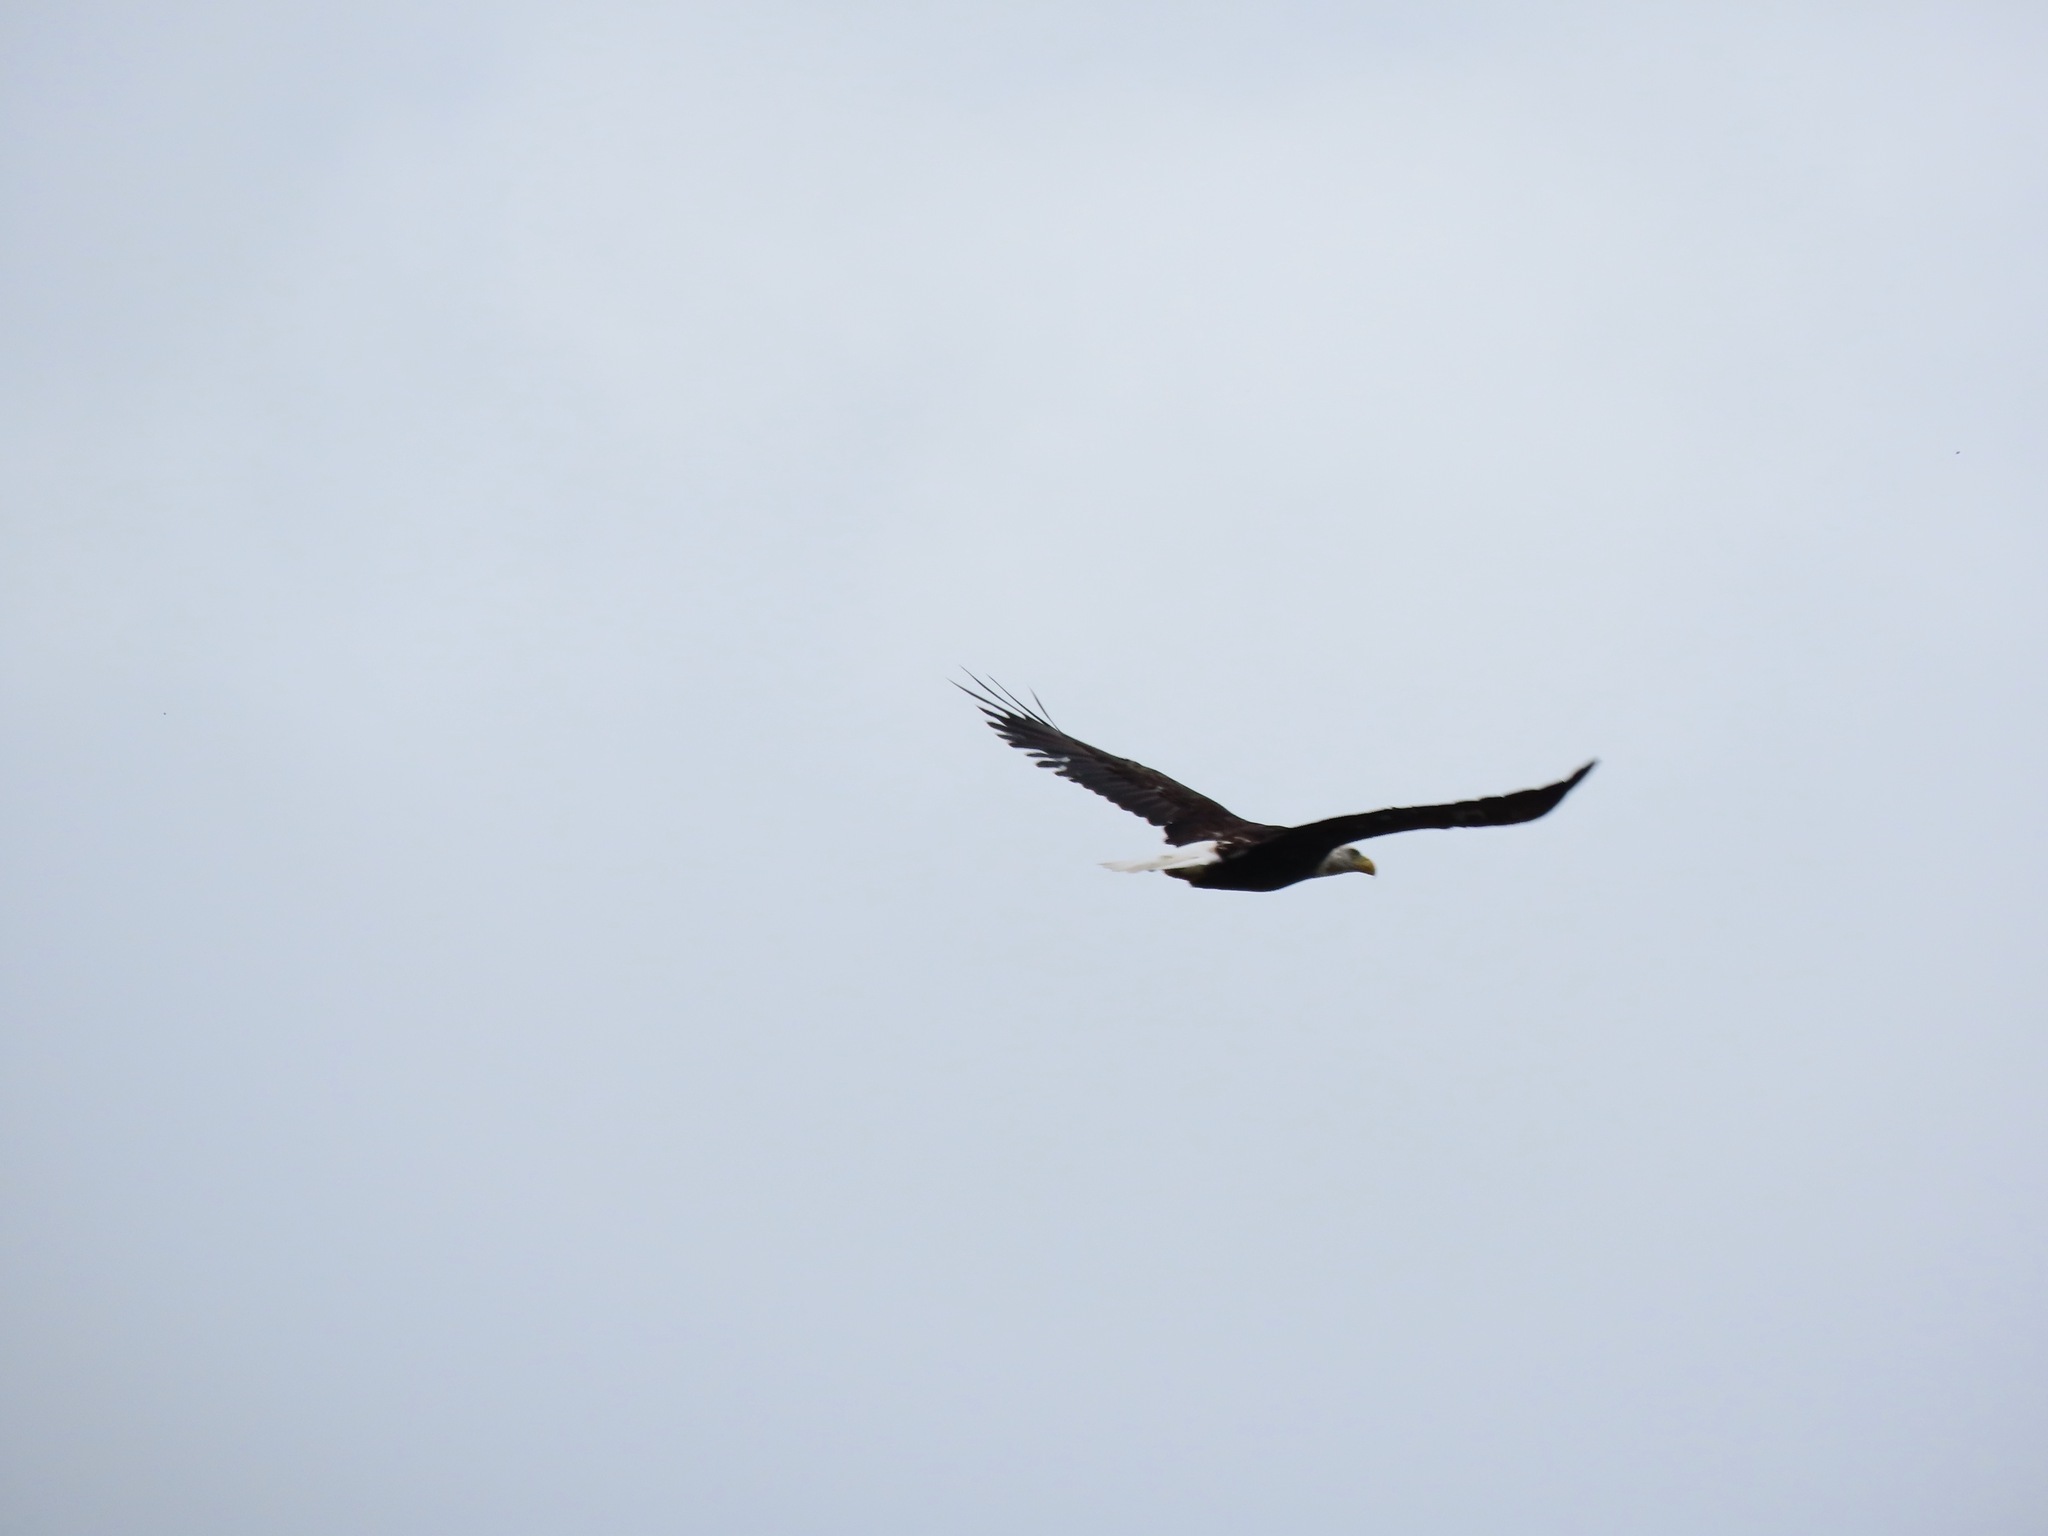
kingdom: Animalia
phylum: Chordata
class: Aves
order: Accipitriformes
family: Accipitridae
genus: Haliaeetus
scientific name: Haliaeetus leucocephalus
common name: Bald eagle
